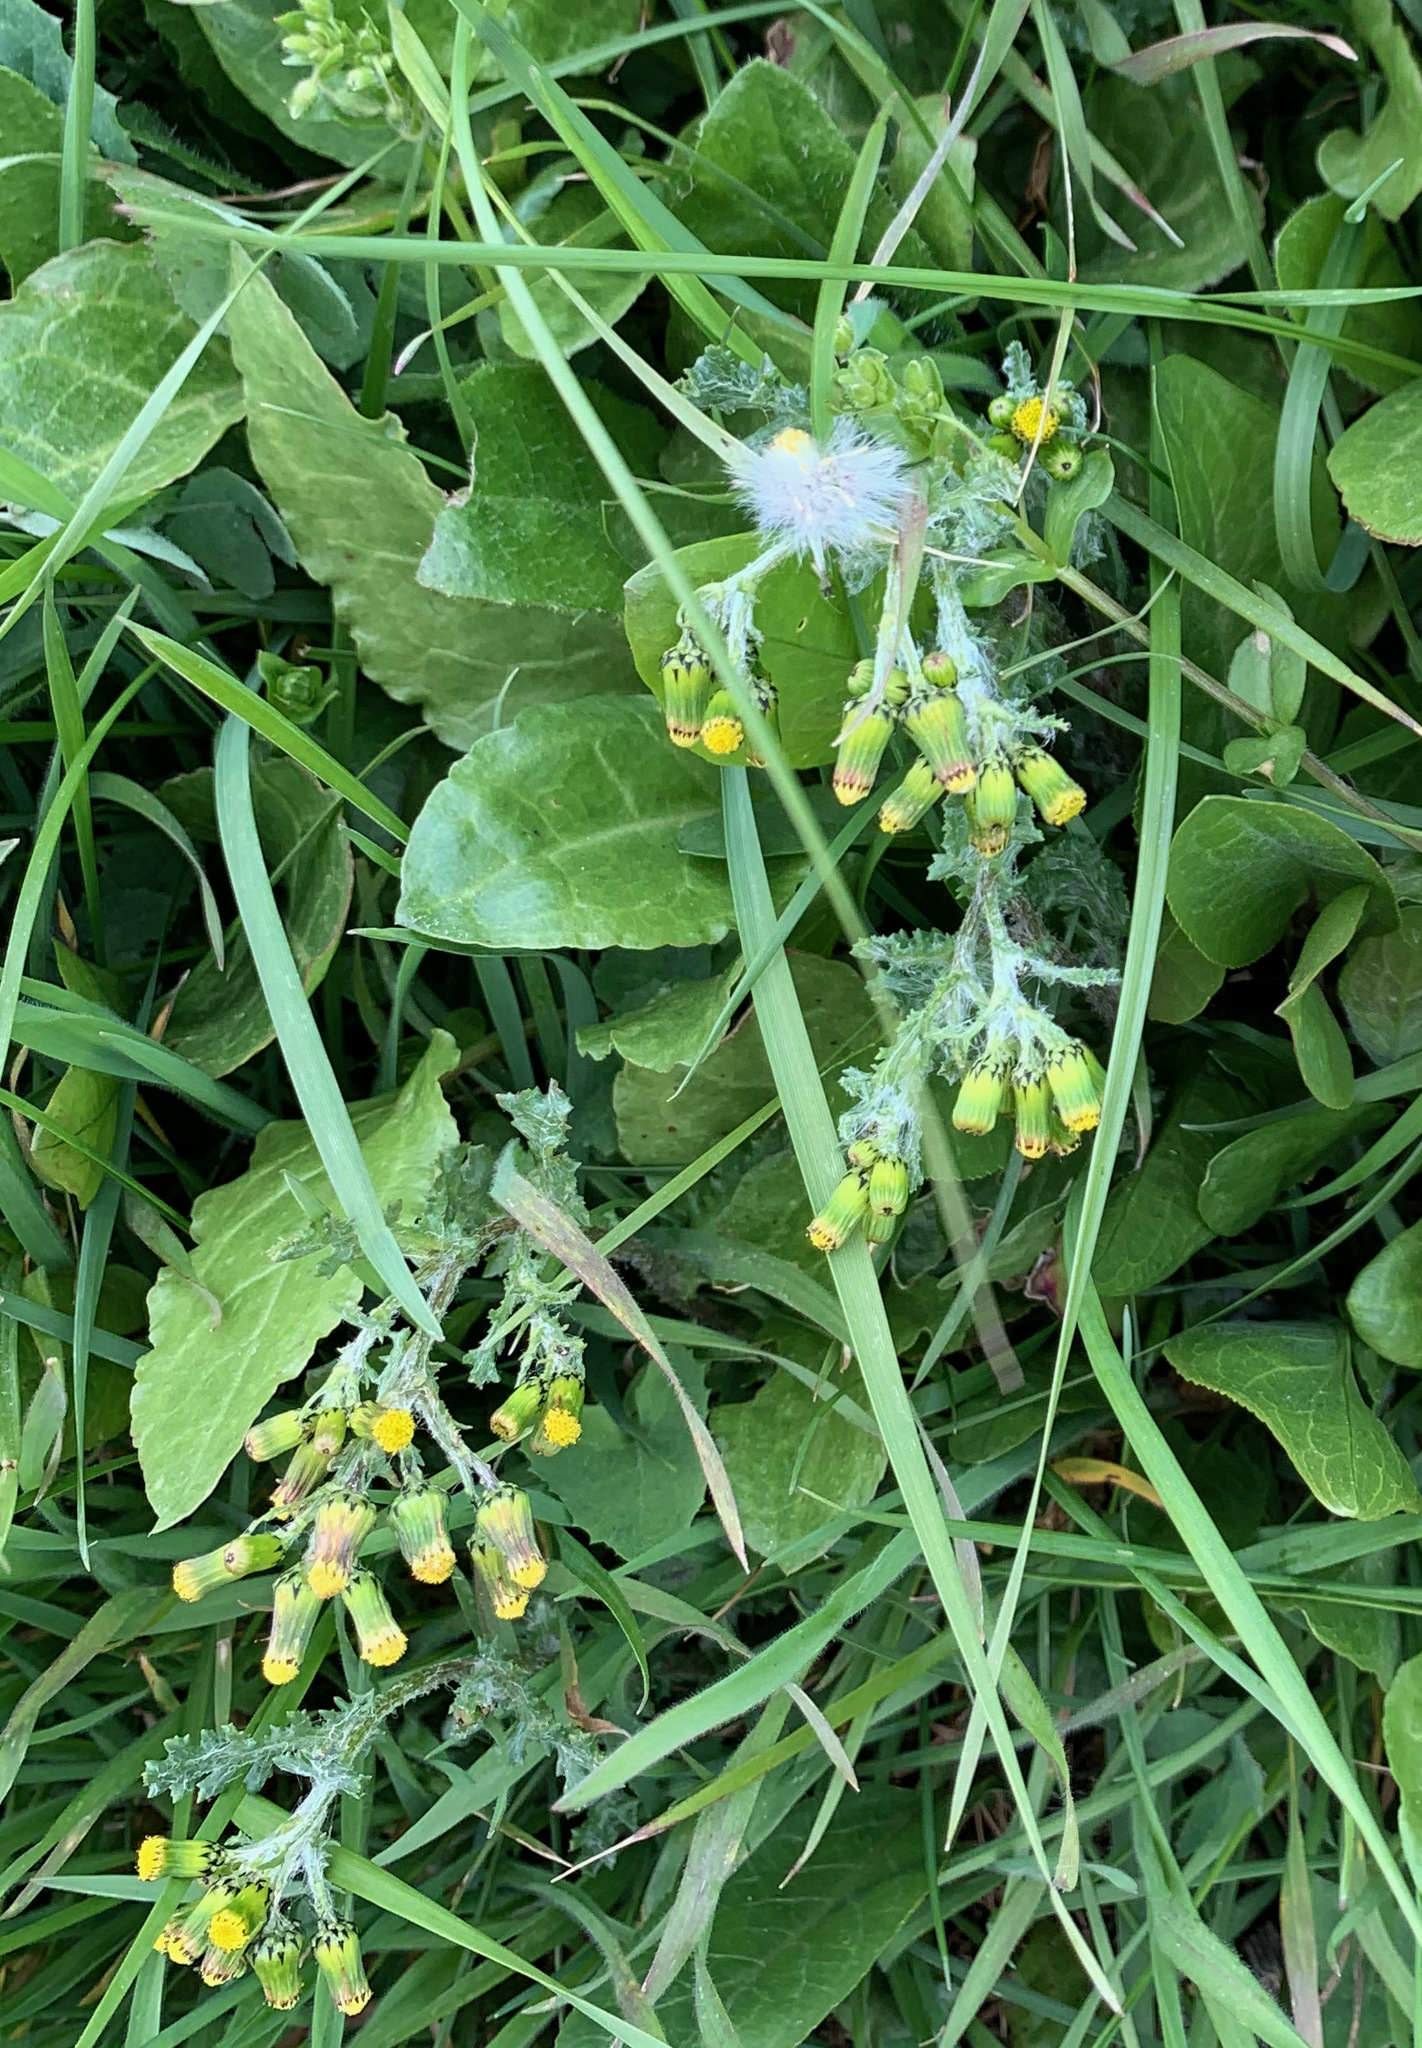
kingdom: Plantae
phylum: Tracheophyta
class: Magnoliopsida
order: Asterales
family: Asteraceae
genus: Senecio
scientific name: Senecio vulgaris
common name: Old-man-in-the-spring
